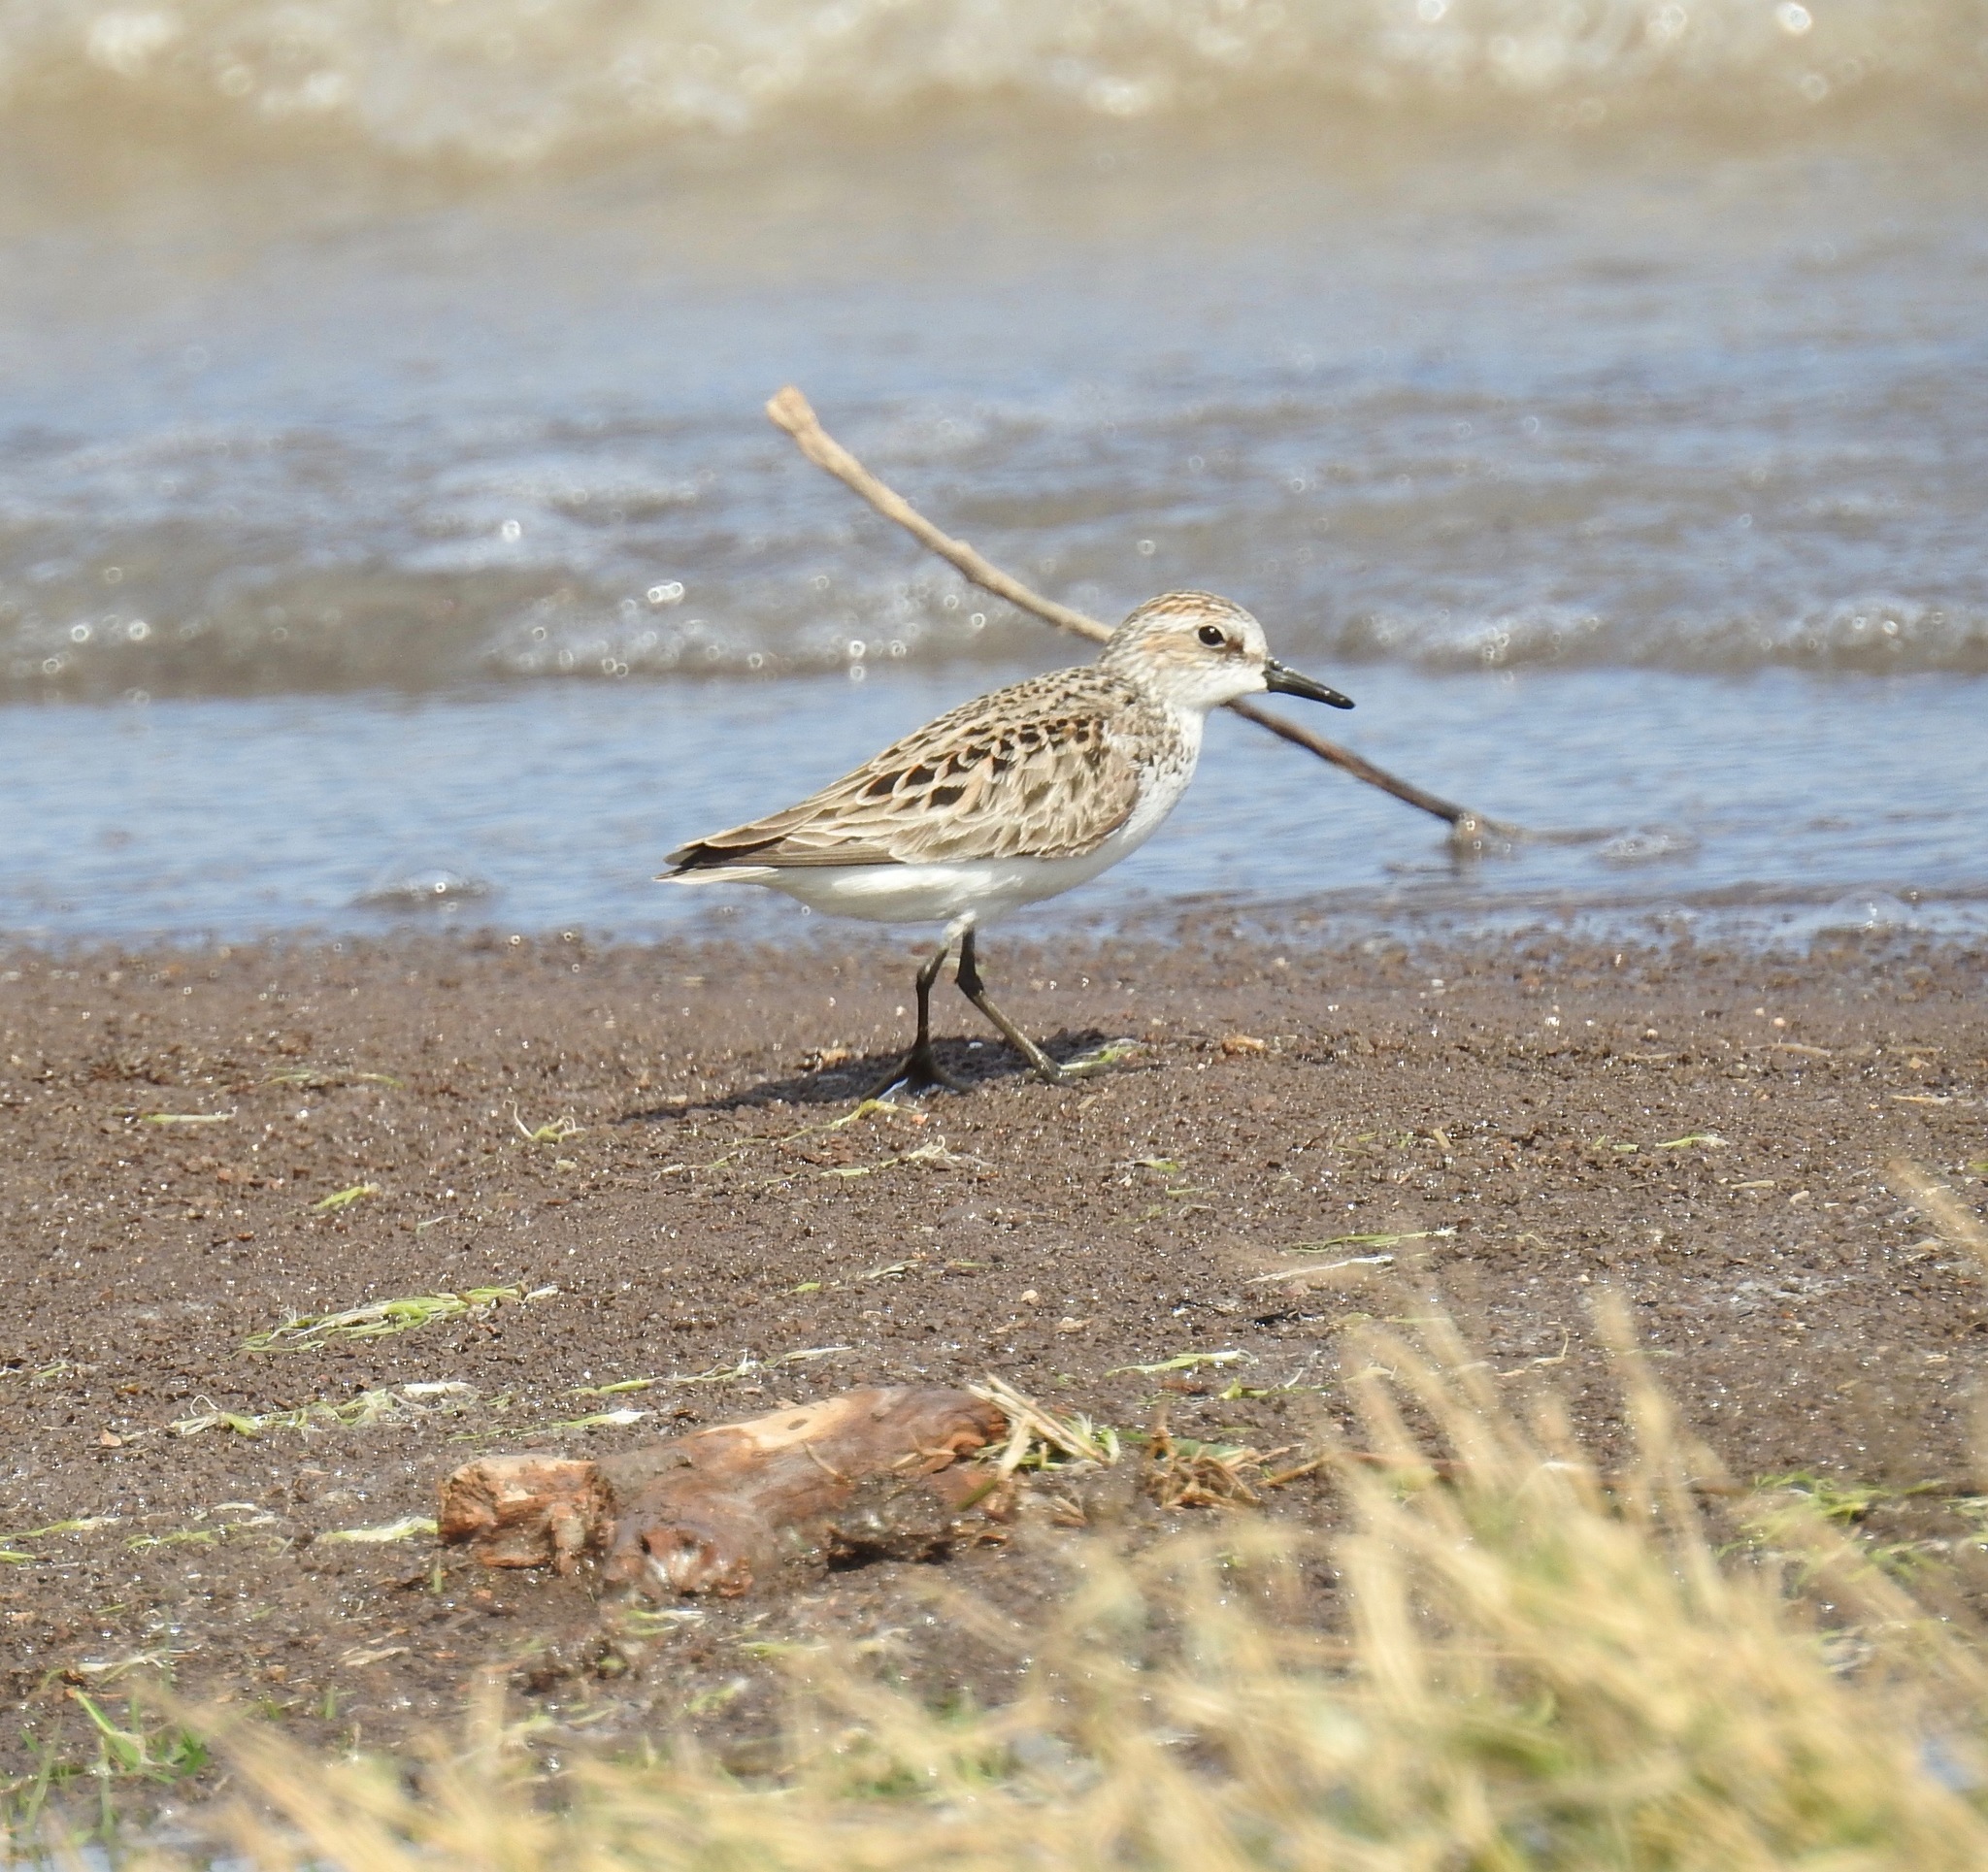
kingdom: Animalia
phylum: Chordata
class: Aves
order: Charadriiformes
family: Scolopacidae
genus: Calidris
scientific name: Calidris pusilla
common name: Semipalmated sandpiper
